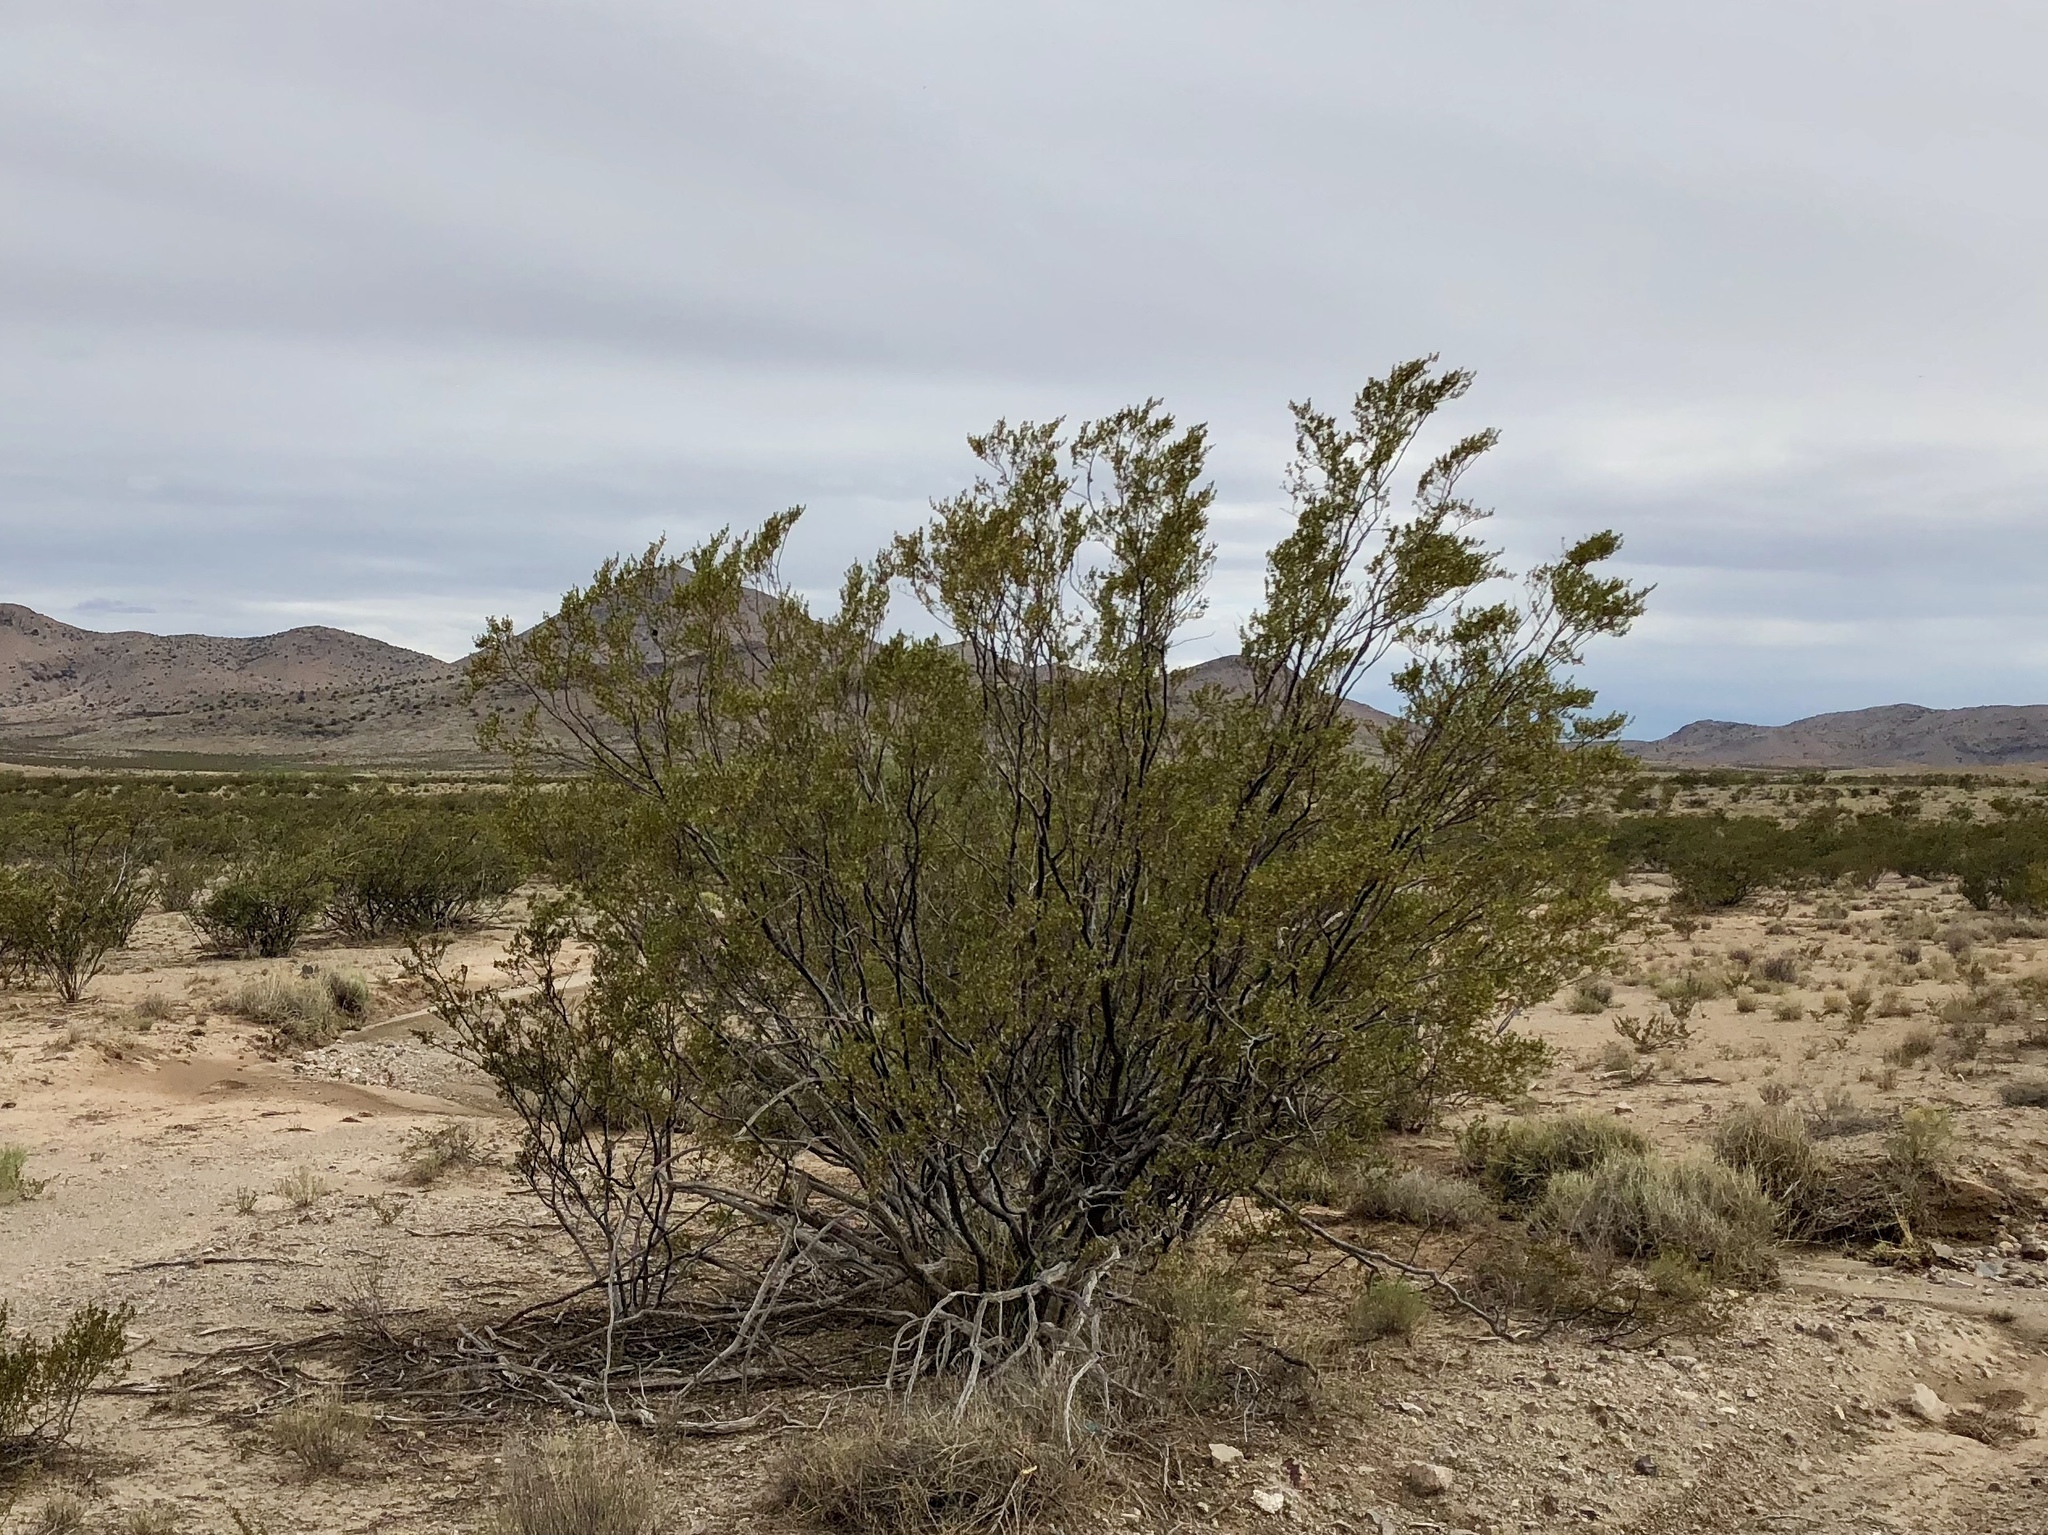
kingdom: Plantae
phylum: Tracheophyta
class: Magnoliopsida
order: Zygophyllales
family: Zygophyllaceae
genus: Larrea
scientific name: Larrea tridentata
